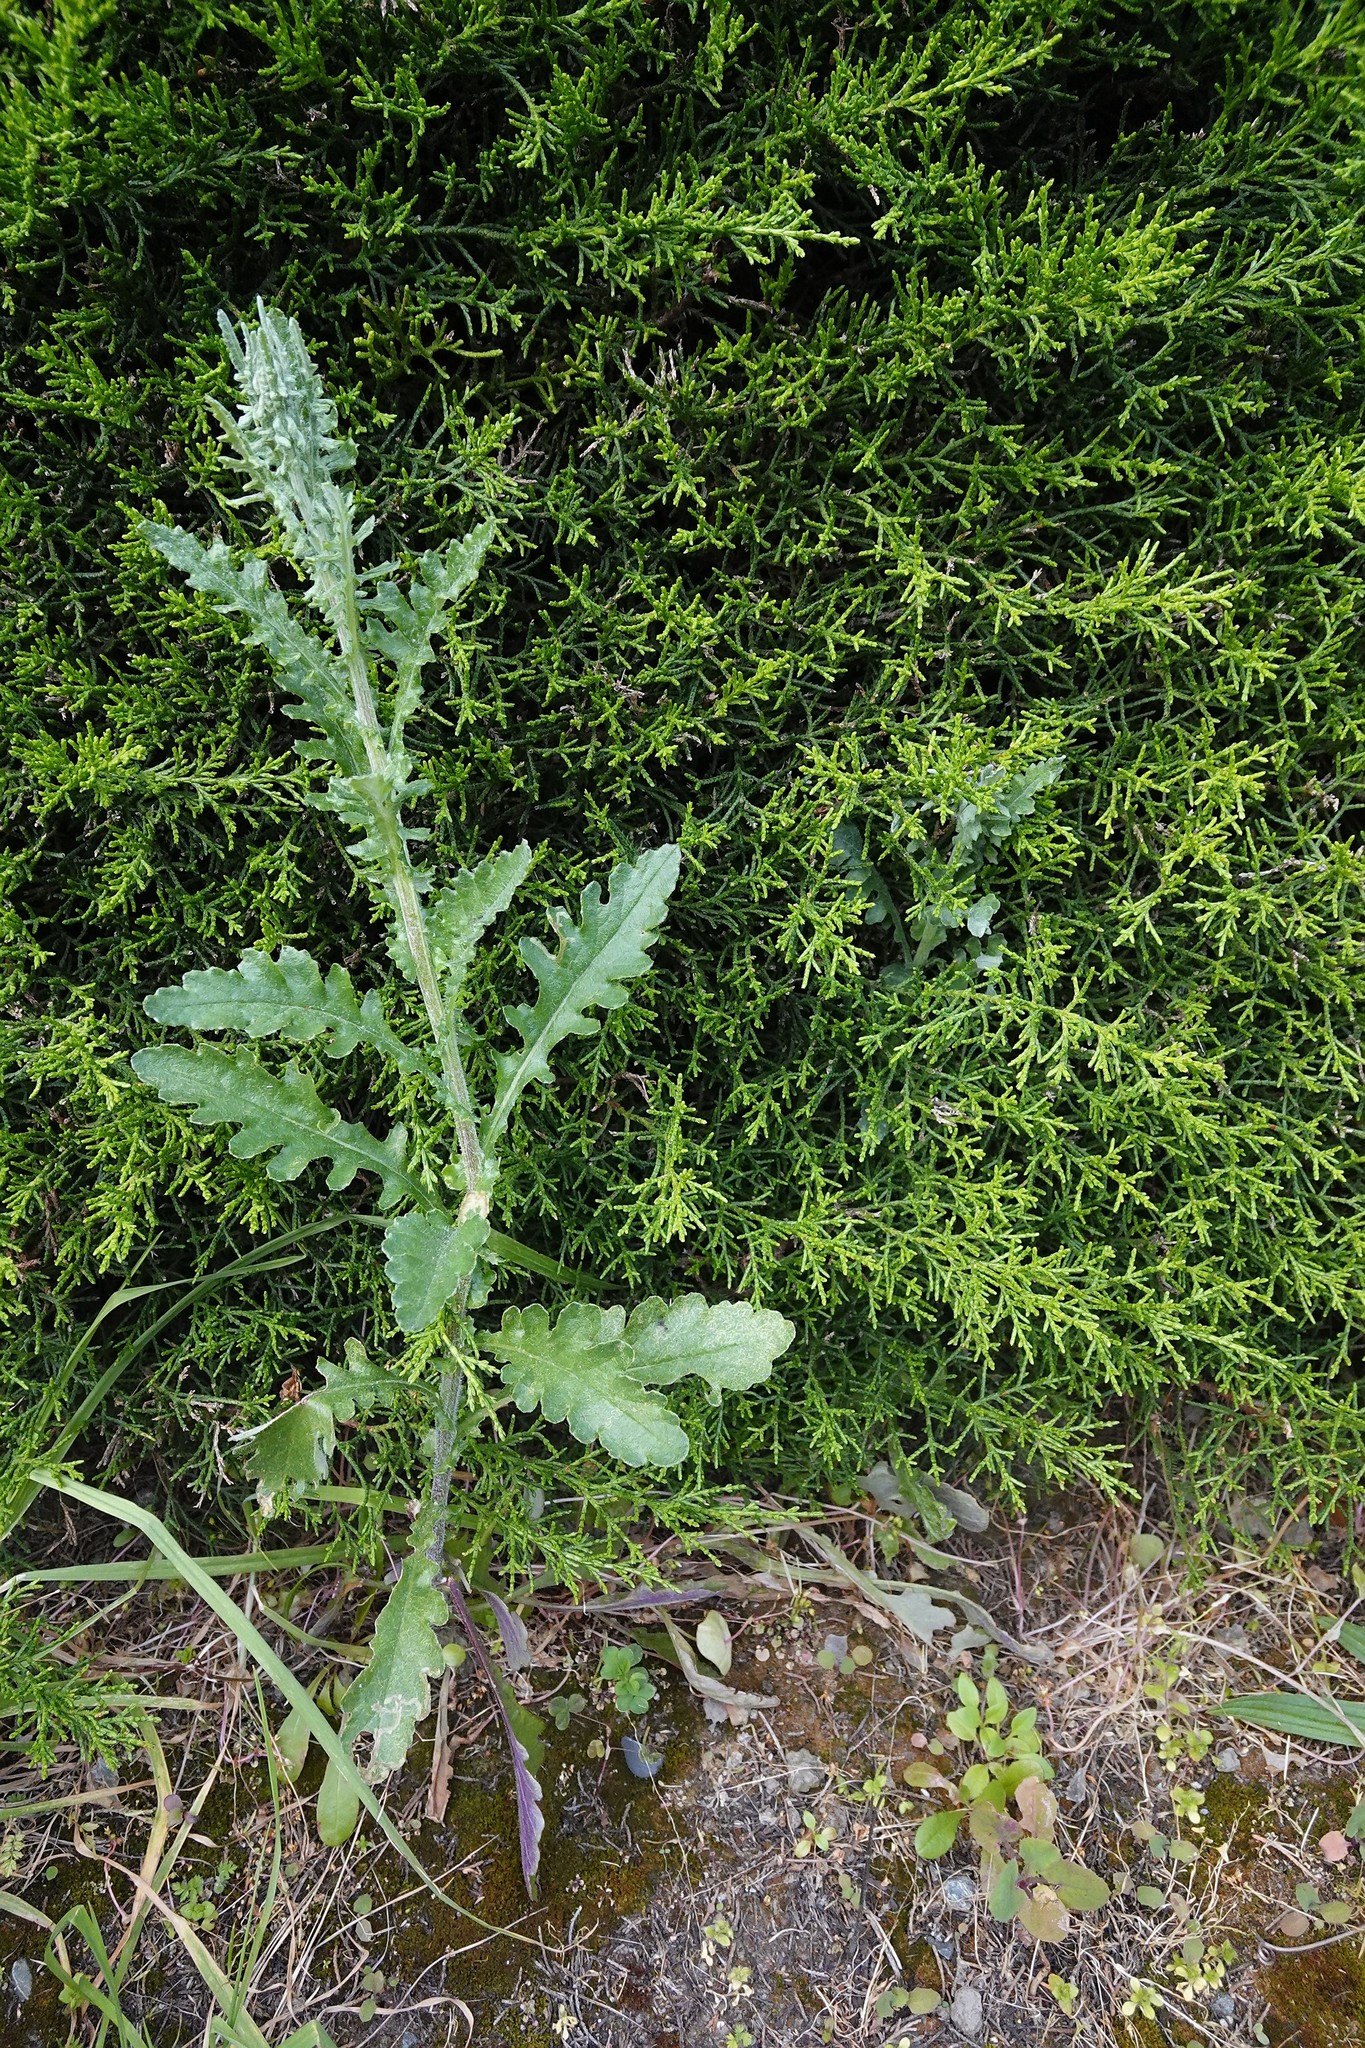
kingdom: Plantae
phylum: Tracheophyta
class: Magnoliopsida
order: Asterales
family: Asteraceae
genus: Senecio
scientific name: Senecio glomeratus
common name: Cutleaf burnweed
